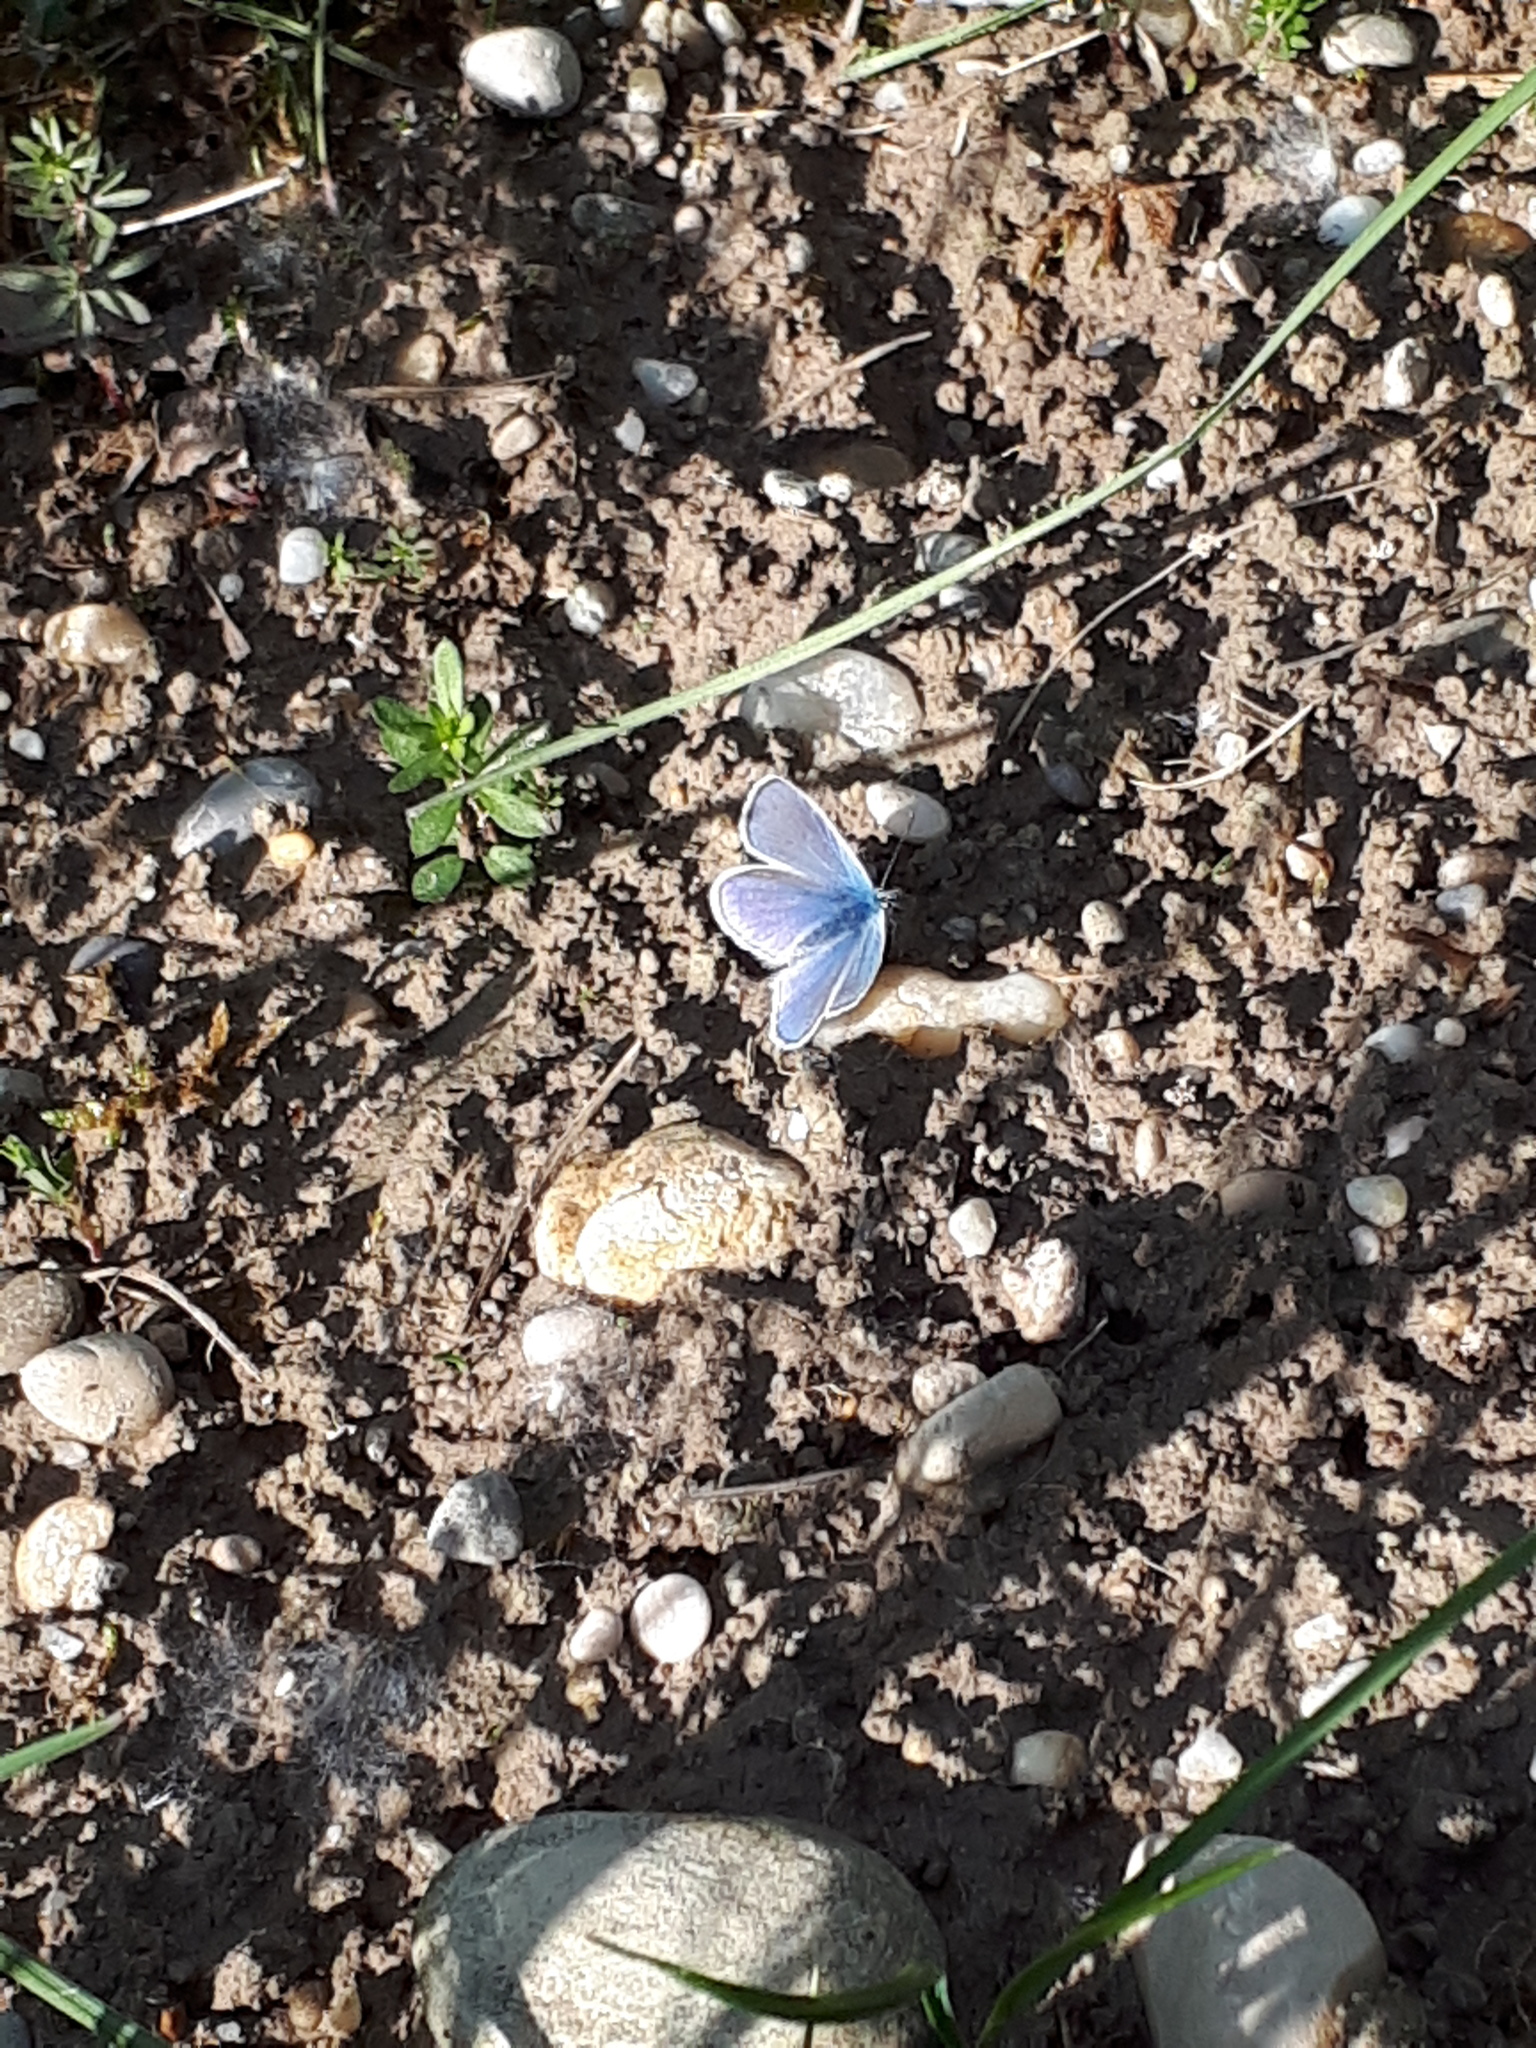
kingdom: Animalia
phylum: Arthropoda
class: Insecta
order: Lepidoptera
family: Lycaenidae
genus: Polyommatus
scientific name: Polyommatus icarus
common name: Common blue
